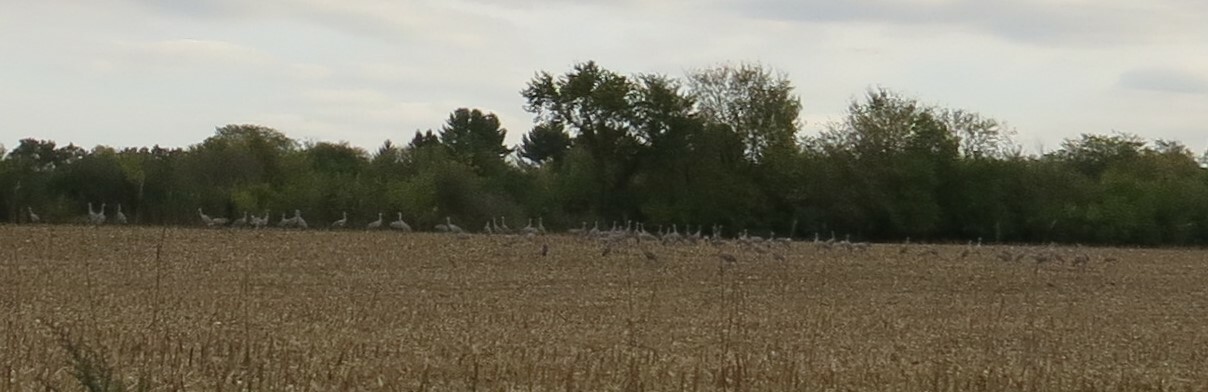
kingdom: Animalia
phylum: Chordata
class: Aves
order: Gruiformes
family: Gruidae
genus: Grus
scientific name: Grus canadensis
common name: Sandhill crane
